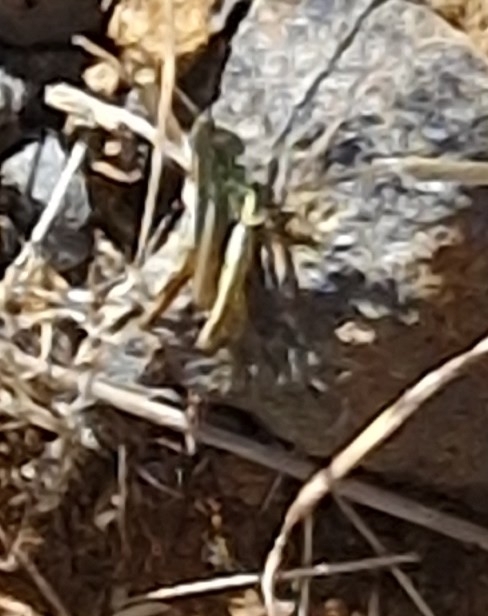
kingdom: Animalia
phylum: Arthropoda
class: Insecta
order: Orthoptera
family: Acrididae
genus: Euchorthippus
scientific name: Euchorthippus madeirae
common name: Madeiran straw grasshopper
